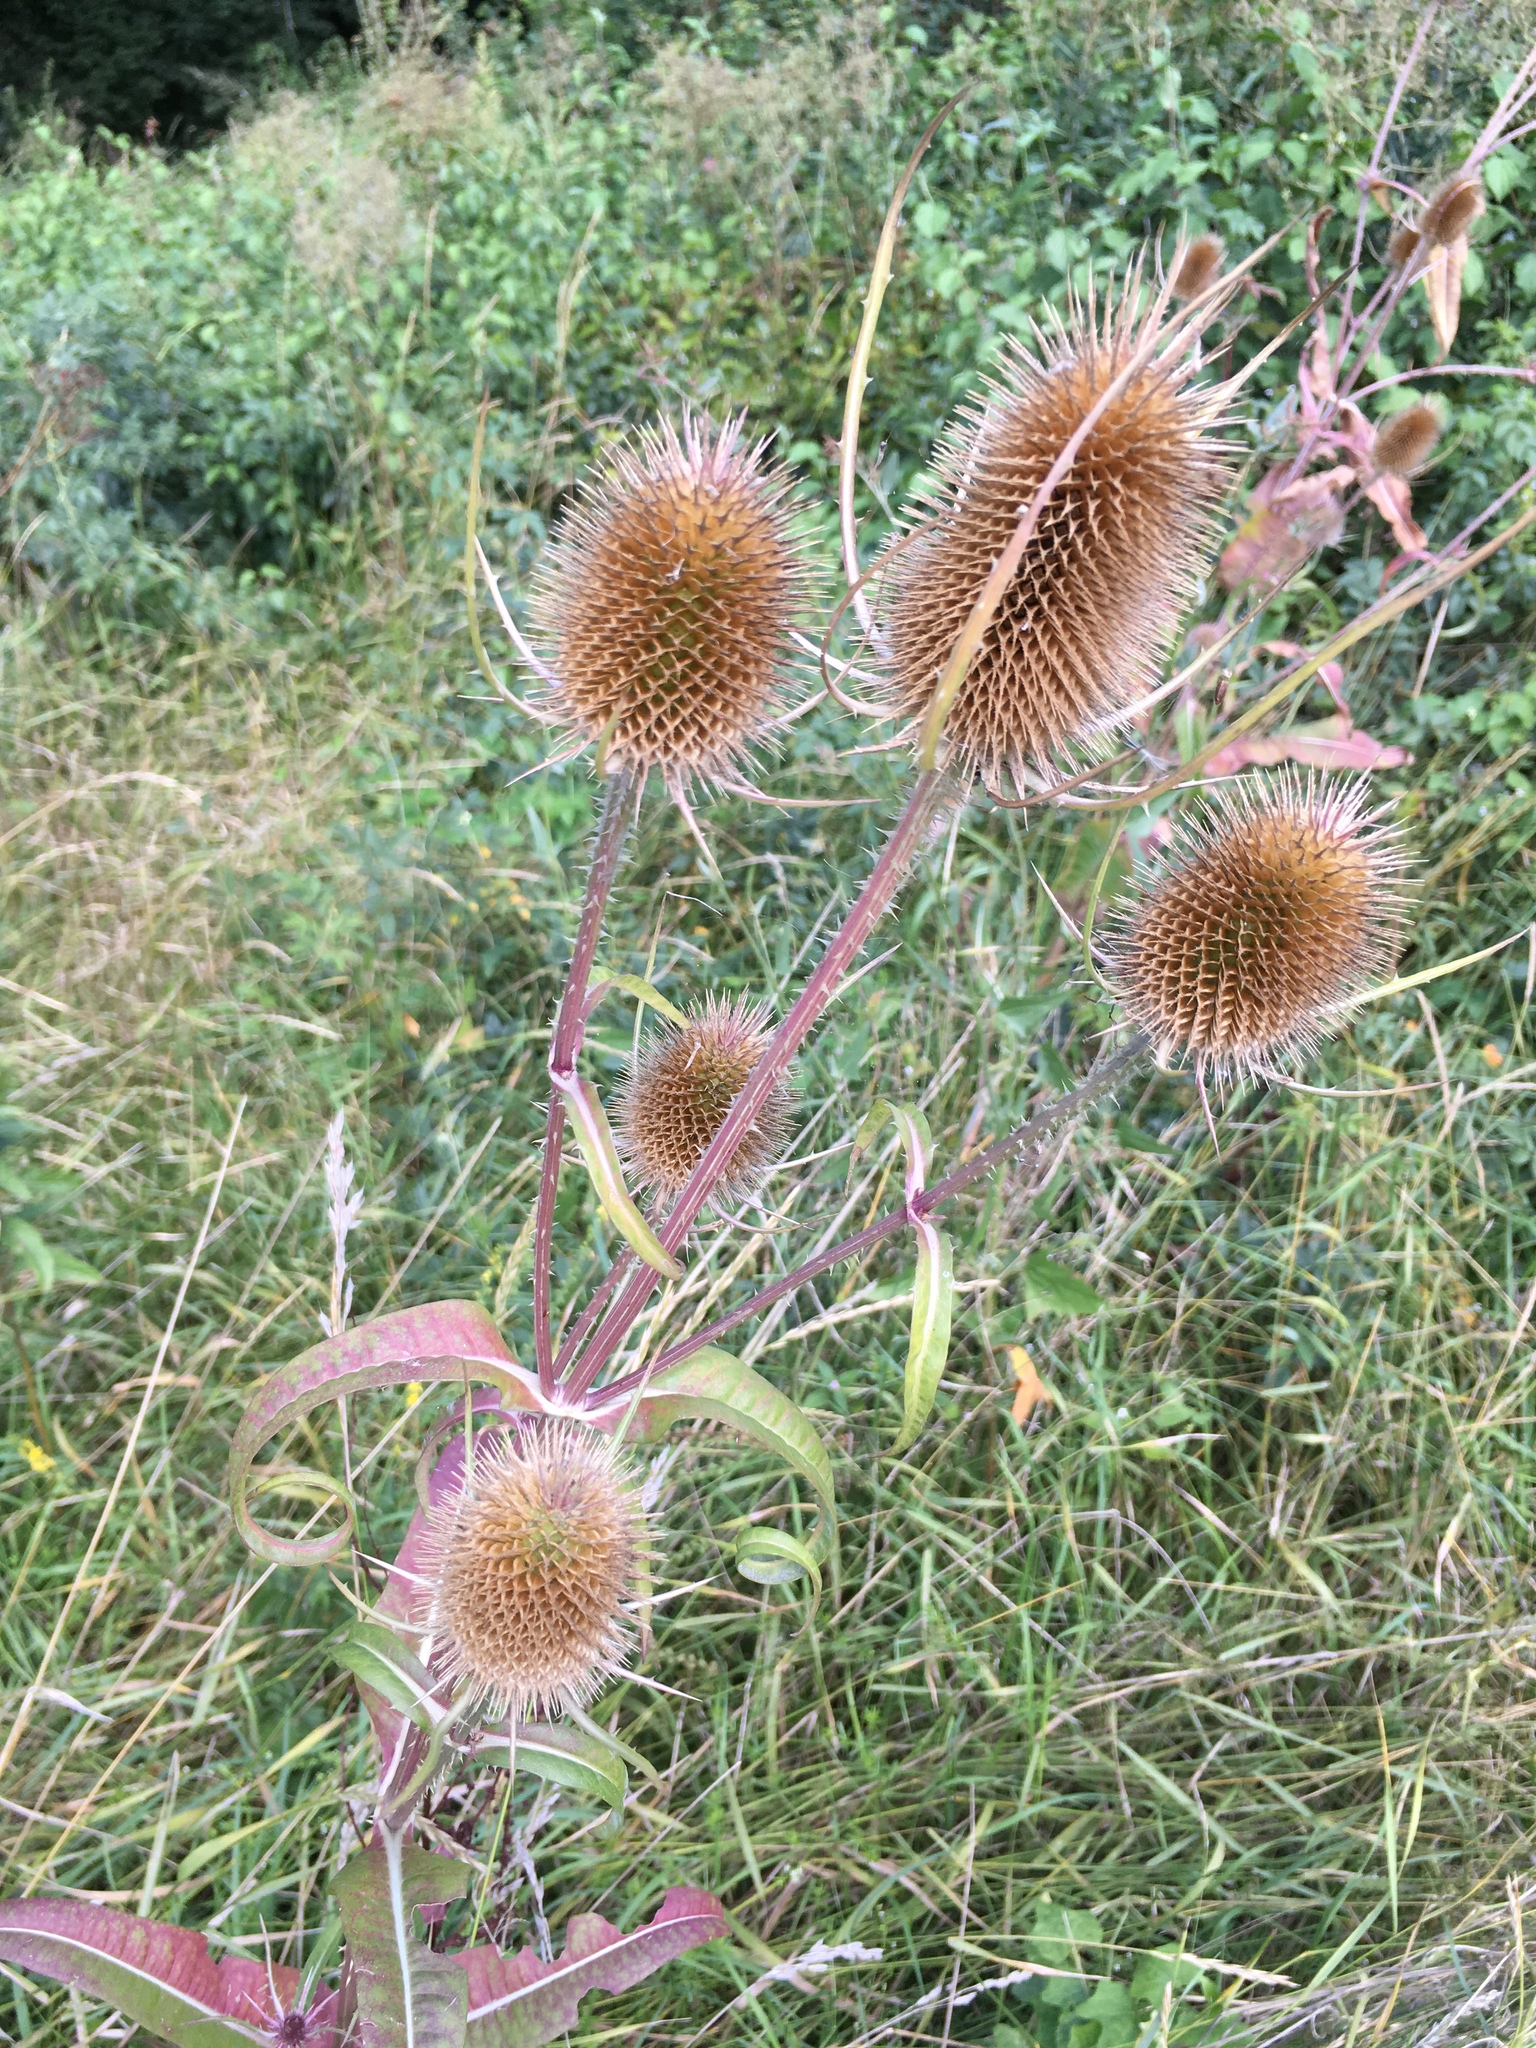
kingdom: Plantae
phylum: Tracheophyta
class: Magnoliopsida
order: Dipsacales
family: Caprifoliaceae
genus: Dipsacus
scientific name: Dipsacus fullonum
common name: Teasel
